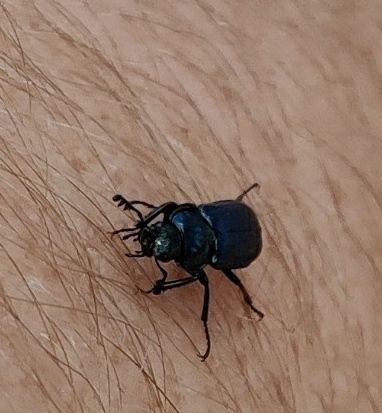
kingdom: Animalia
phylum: Arthropoda
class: Insecta
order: Coleoptera
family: Lucanidae
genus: Platycerus
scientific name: Platycerus caraboides
